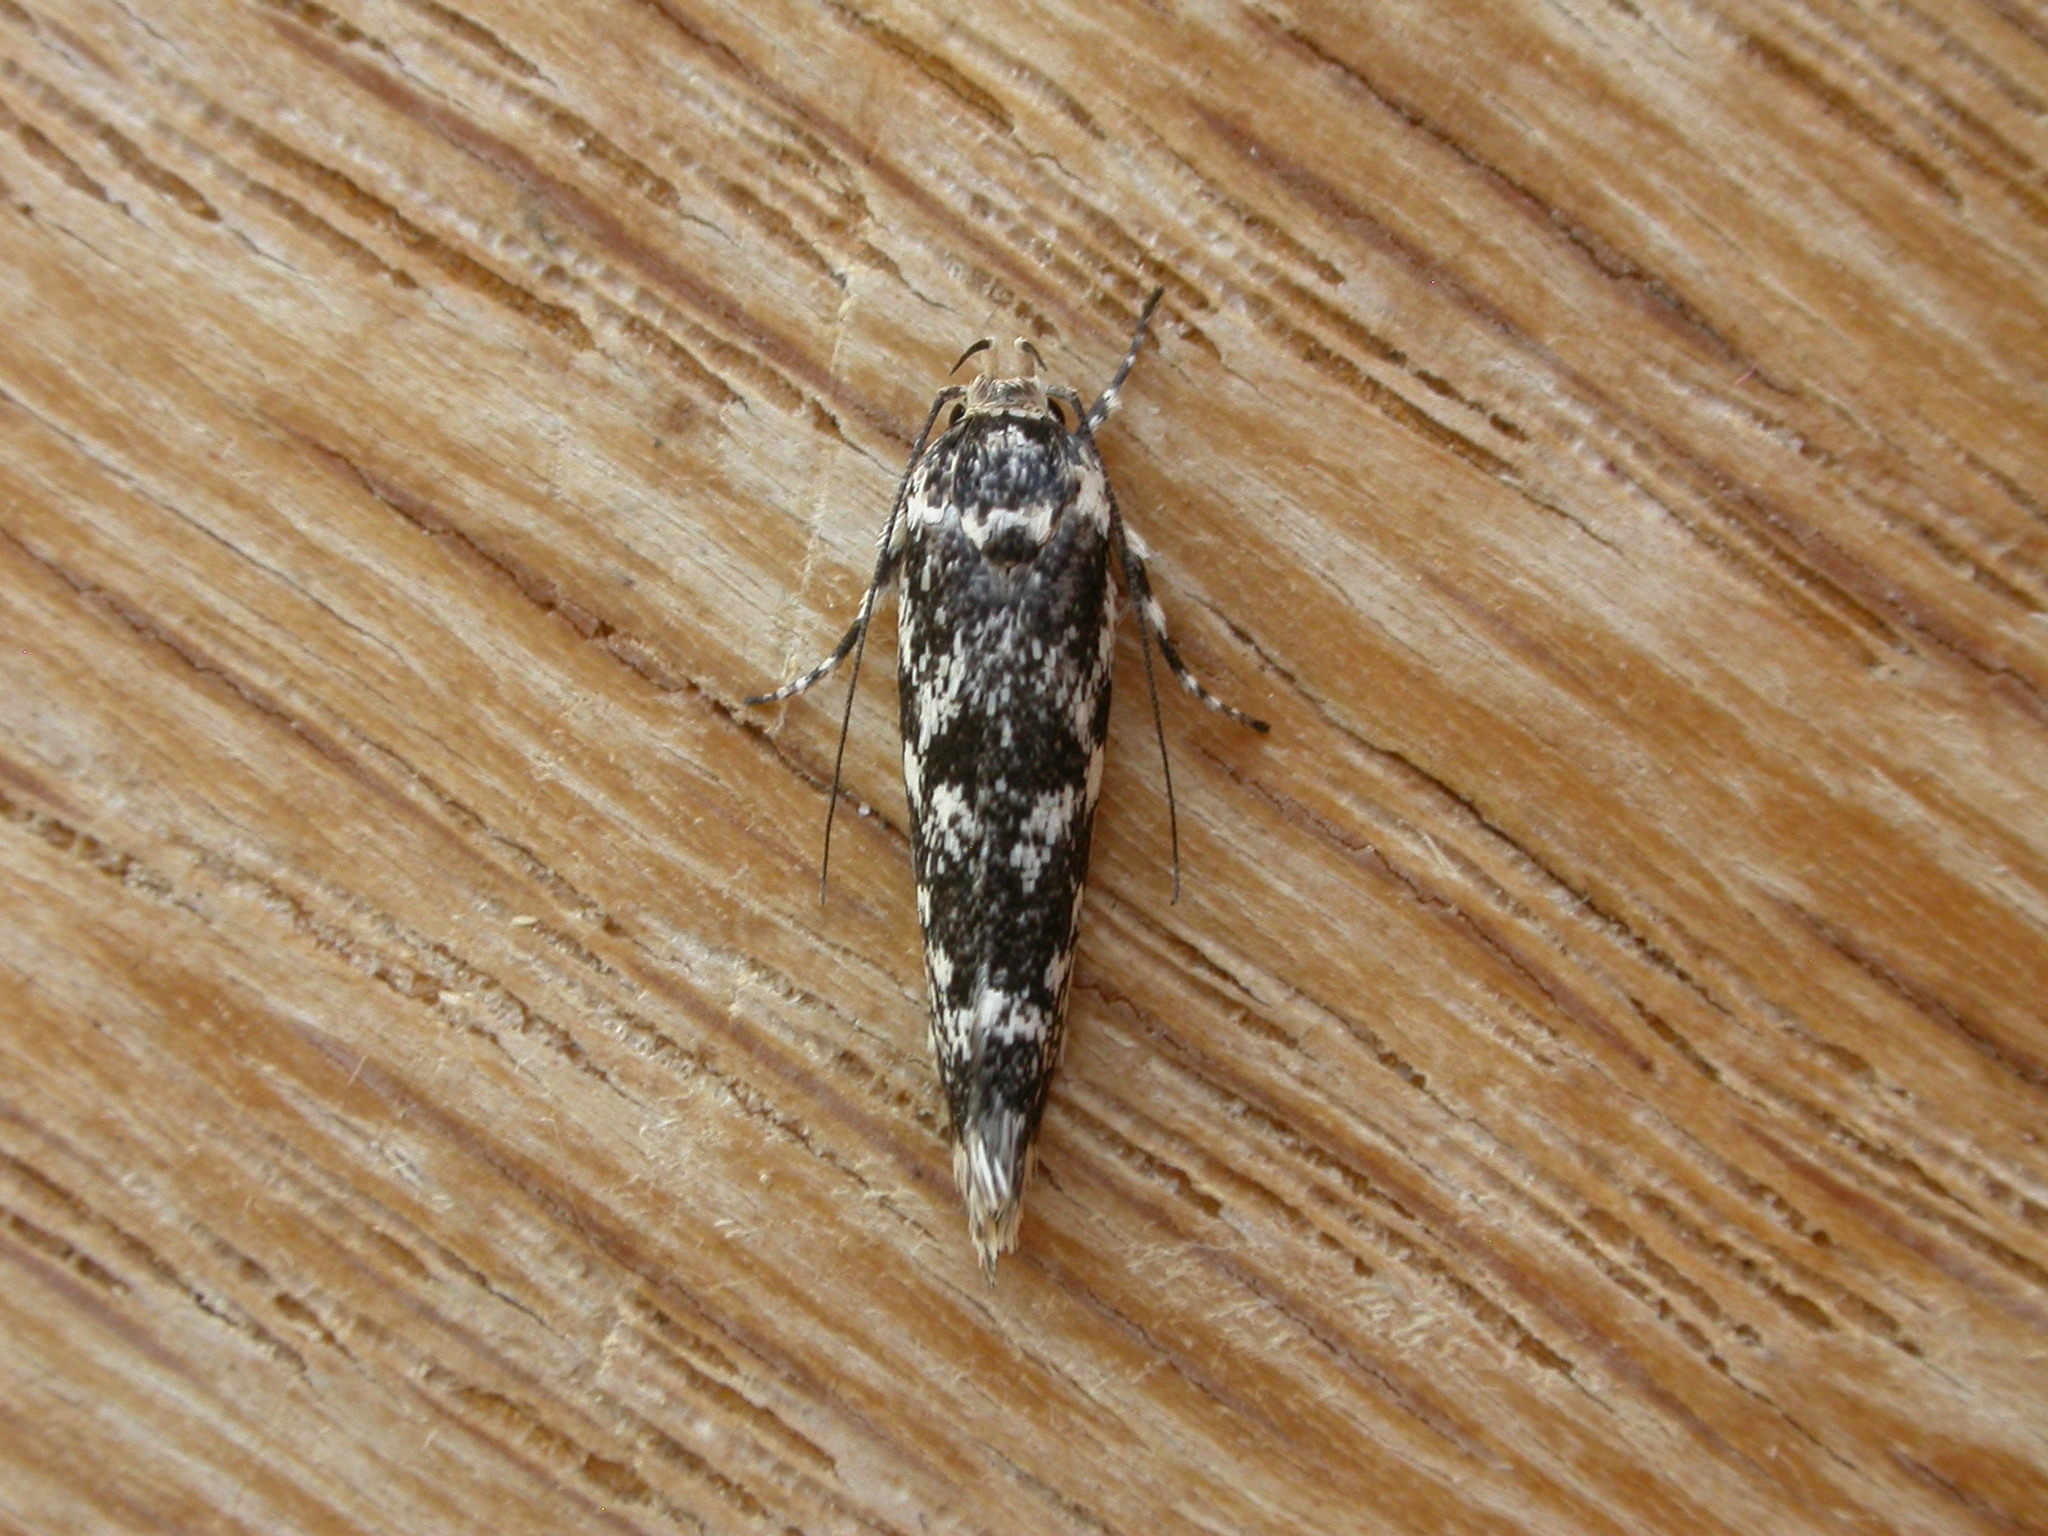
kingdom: Animalia
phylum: Arthropoda
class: Insecta
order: Lepidoptera
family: Xyloryctidae
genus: Lichenaula
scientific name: Lichenaula lichenea
